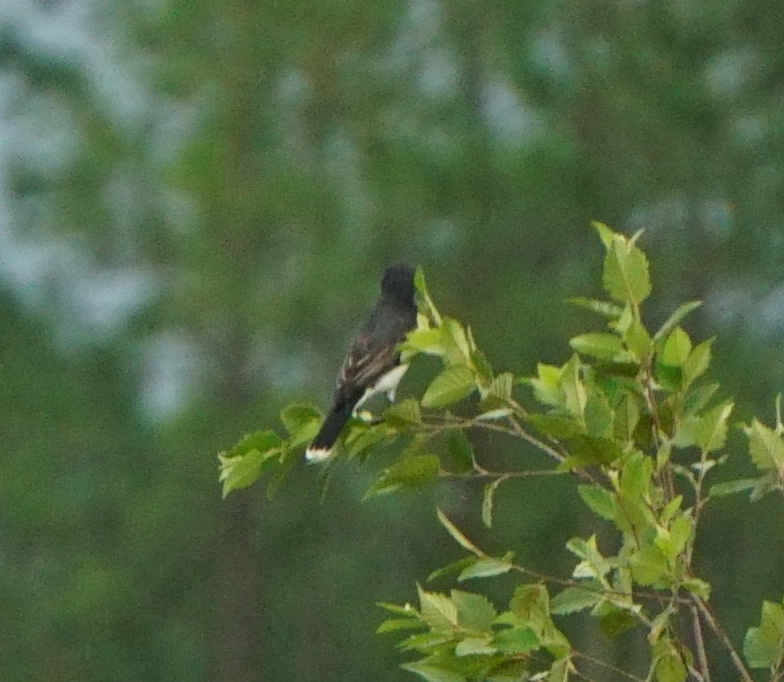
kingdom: Animalia
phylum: Chordata
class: Aves
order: Passeriformes
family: Tyrannidae
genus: Tyrannus
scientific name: Tyrannus tyrannus
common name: Eastern kingbird
